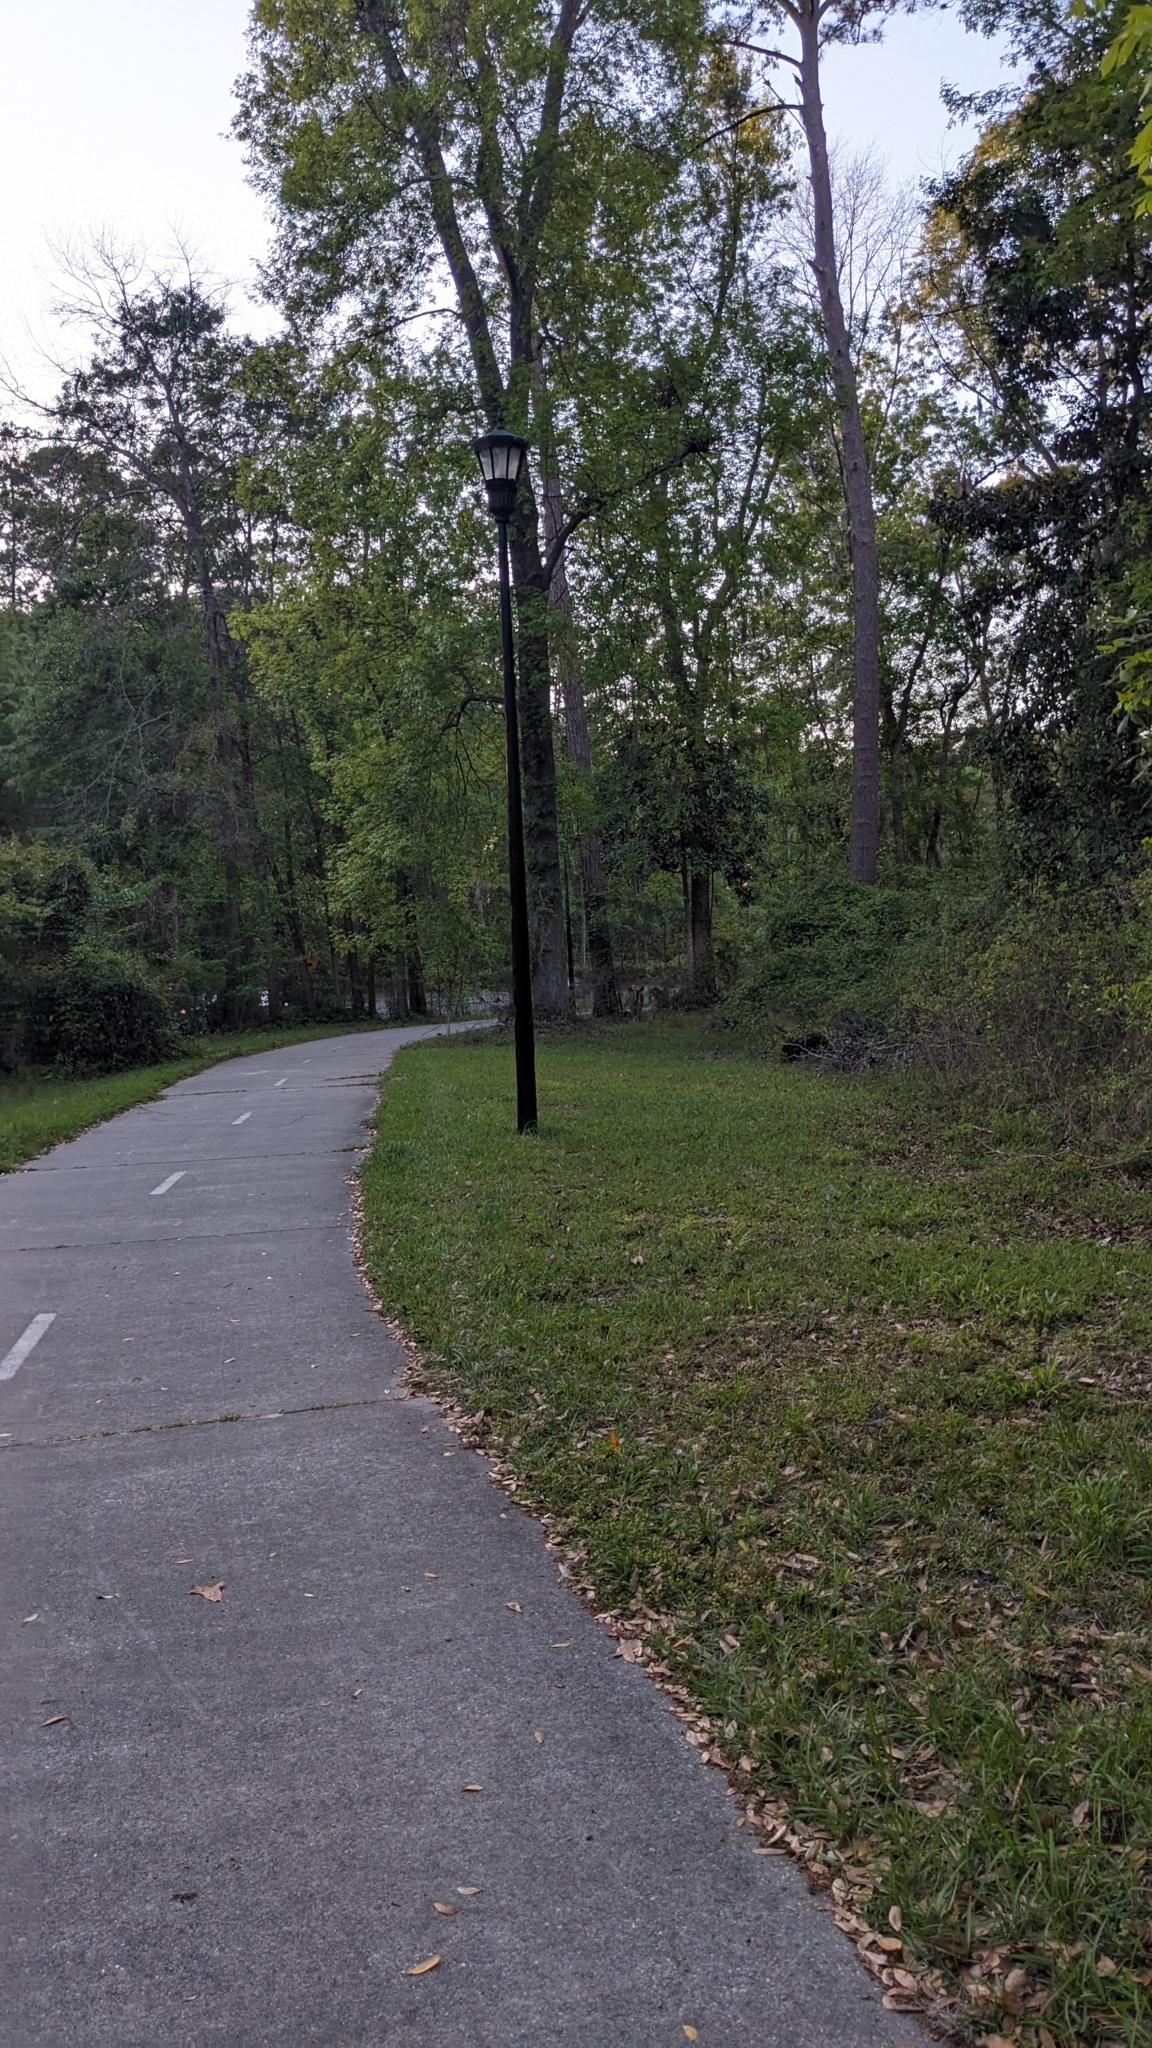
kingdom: Animalia
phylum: Chordata
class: Mammalia
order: Artiodactyla
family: Cervidae
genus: Odocoileus
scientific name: Odocoileus virginianus
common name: White-tailed deer
